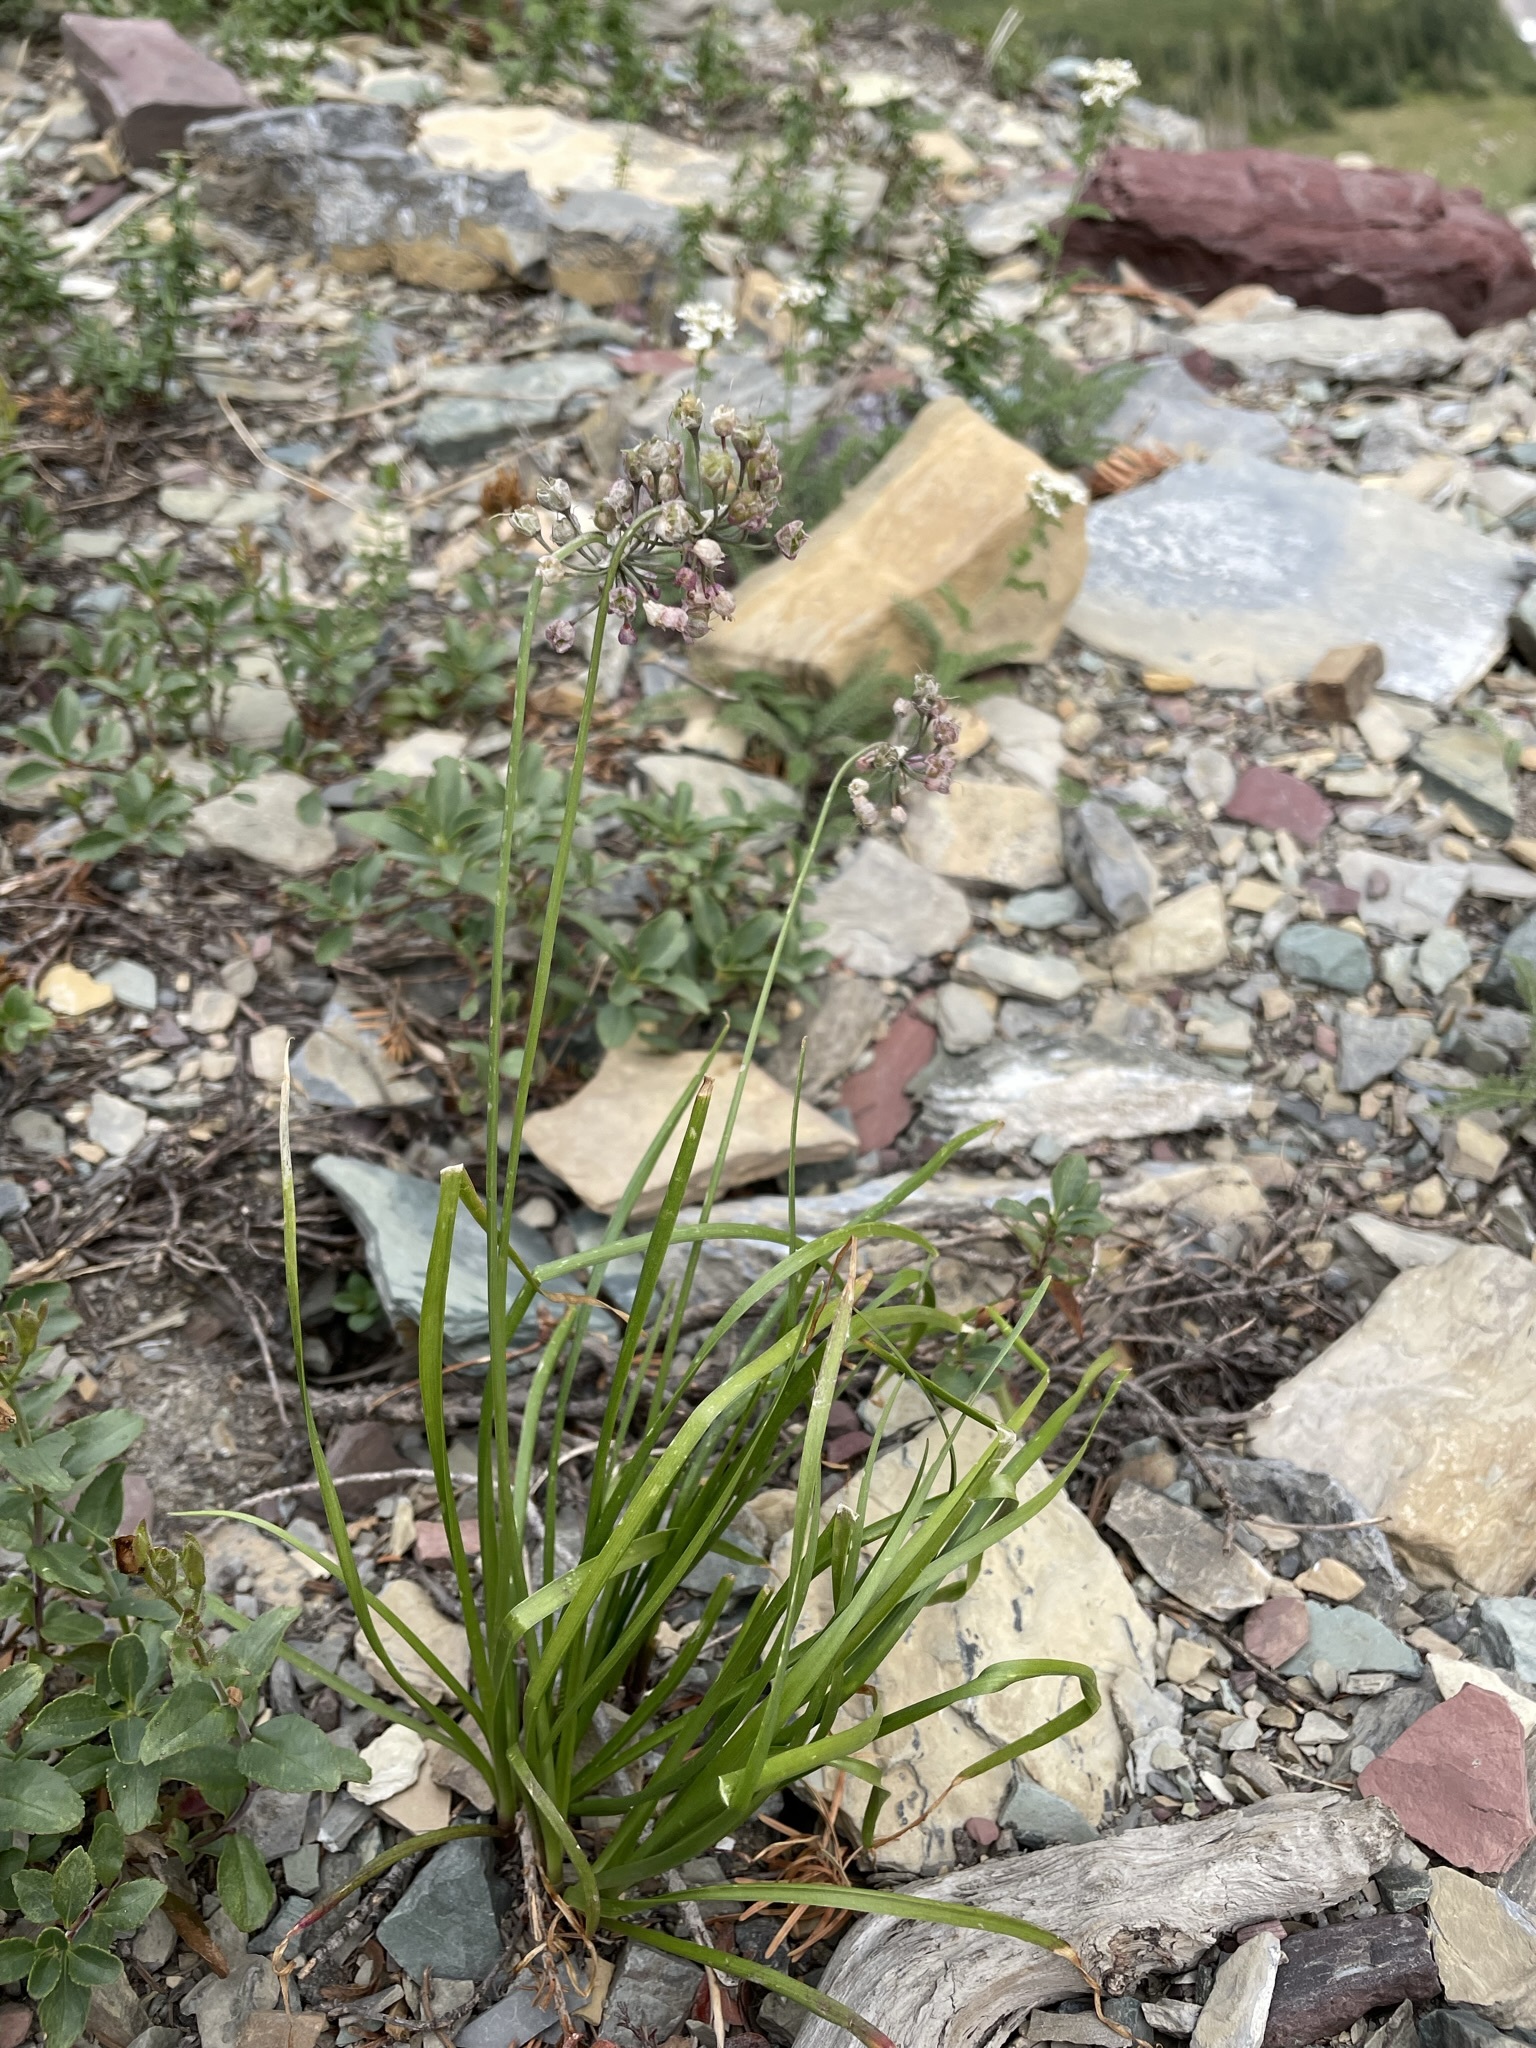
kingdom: Plantae
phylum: Tracheophyta
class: Liliopsida
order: Asparagales
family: Amaryllidaceae
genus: Allium
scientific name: Allium cernuum
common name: Nodding onion
